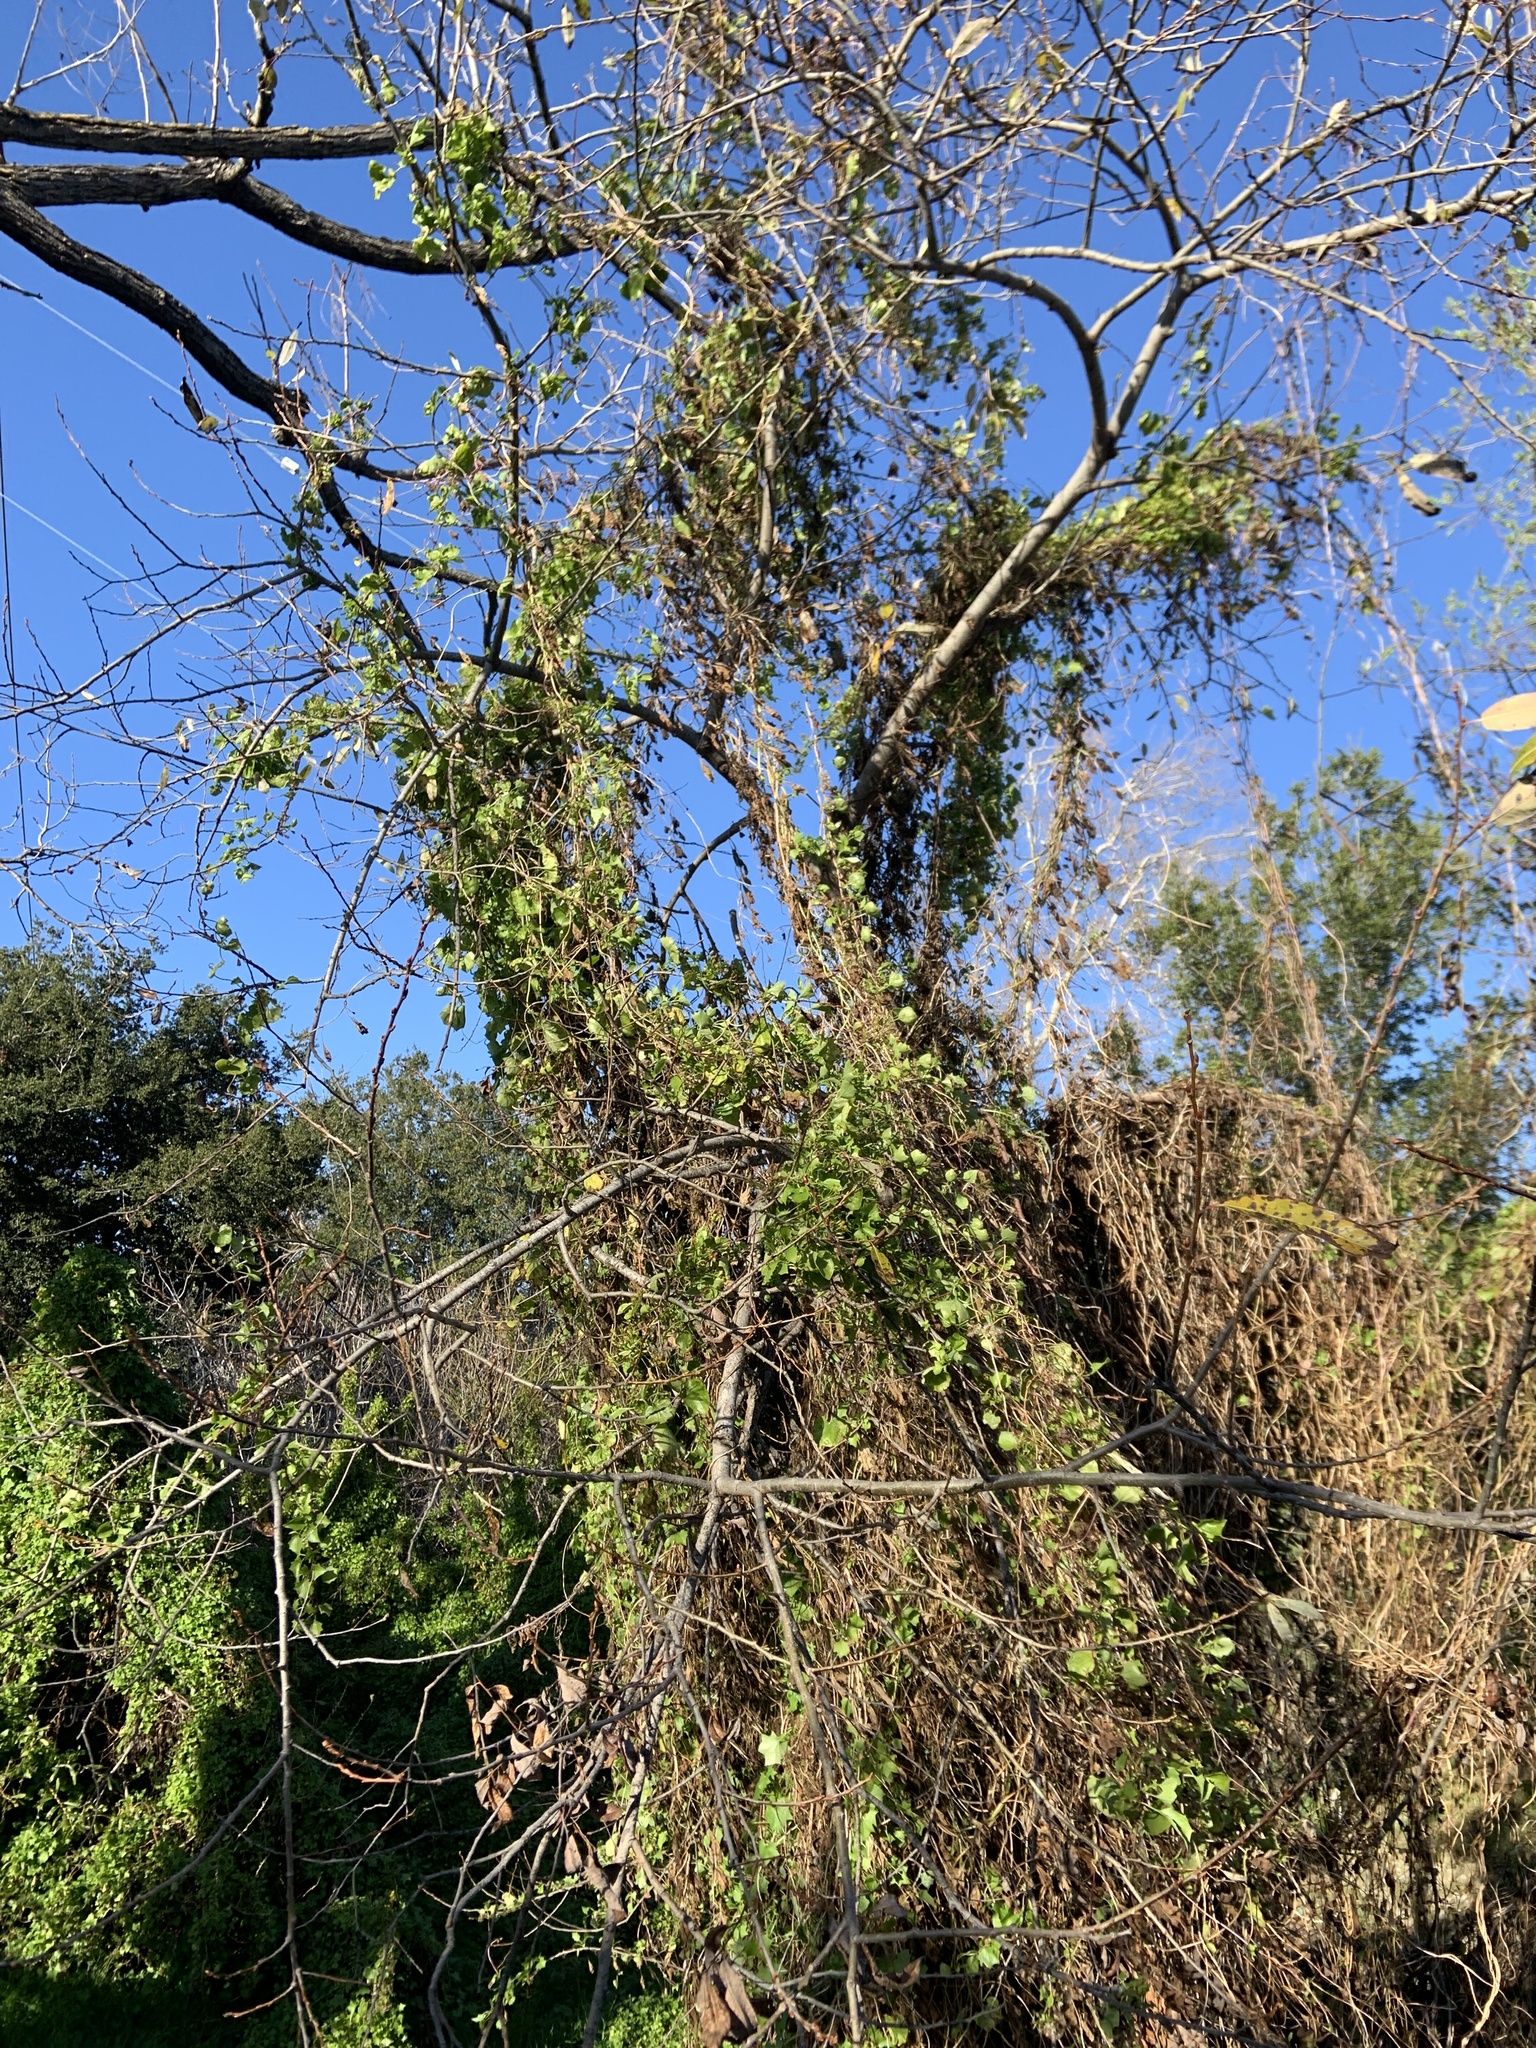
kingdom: Plantae
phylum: Tracheophyta
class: Magnoliopsida
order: Asterales
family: Asteraceae
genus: Delairea
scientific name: Delairea odorata
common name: Cape-ivy
